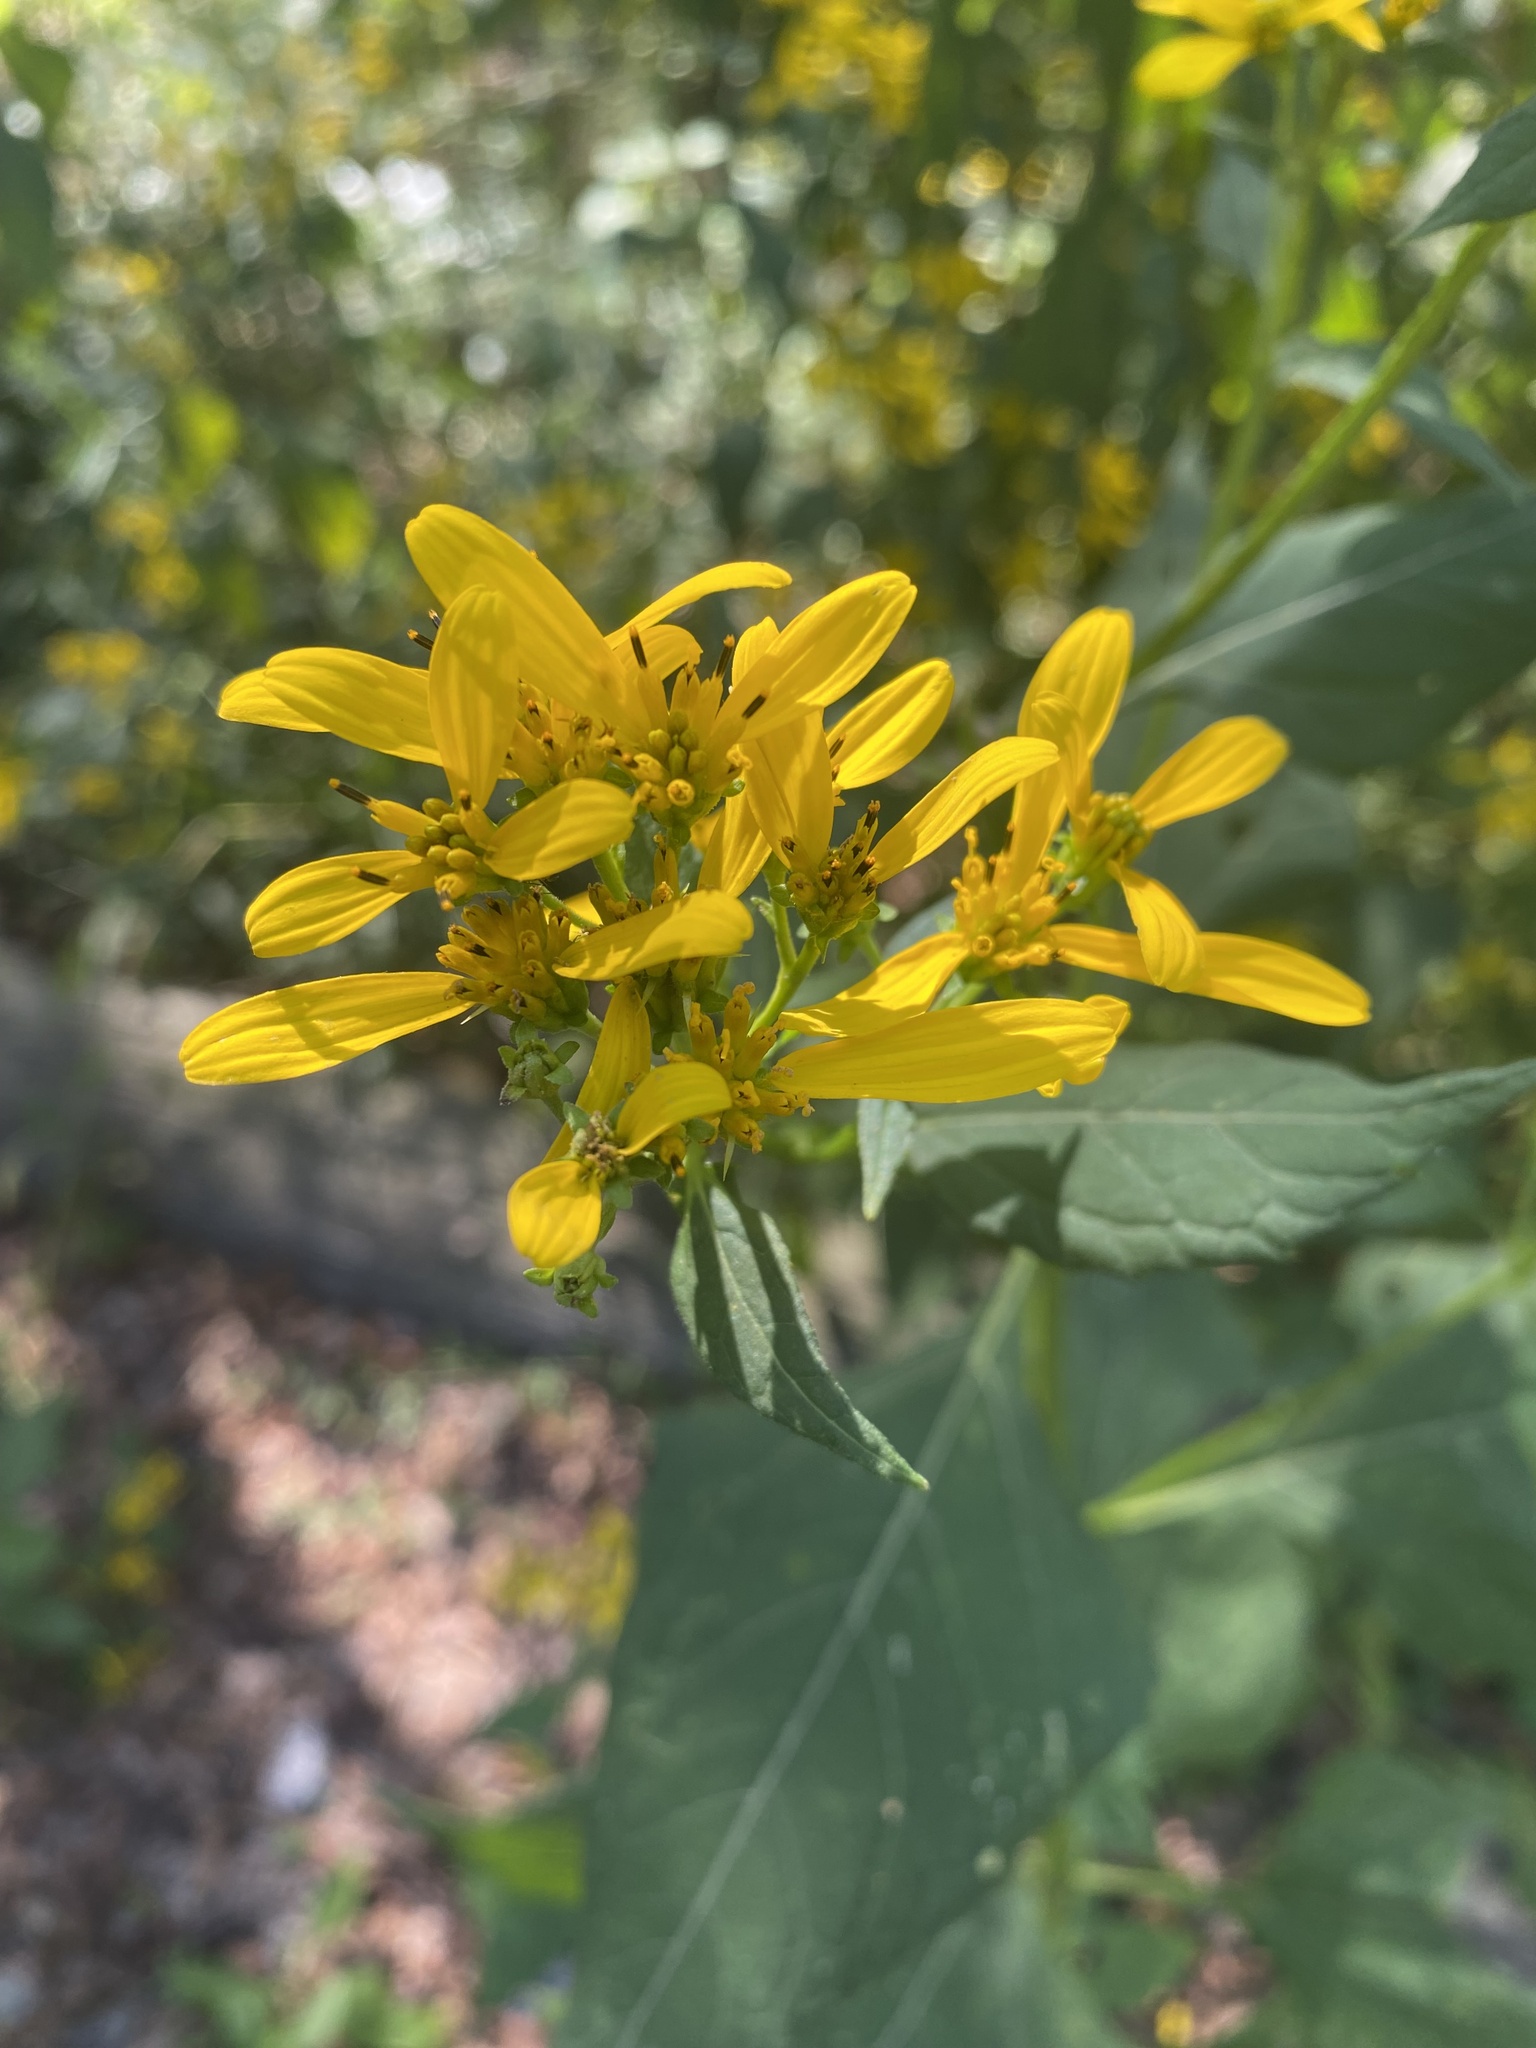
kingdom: Plantae
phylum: Tracheophyta
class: Magnoliopsida
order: Asterales
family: Asteraceae
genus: Verbesina
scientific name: Verbesina occidentalis
